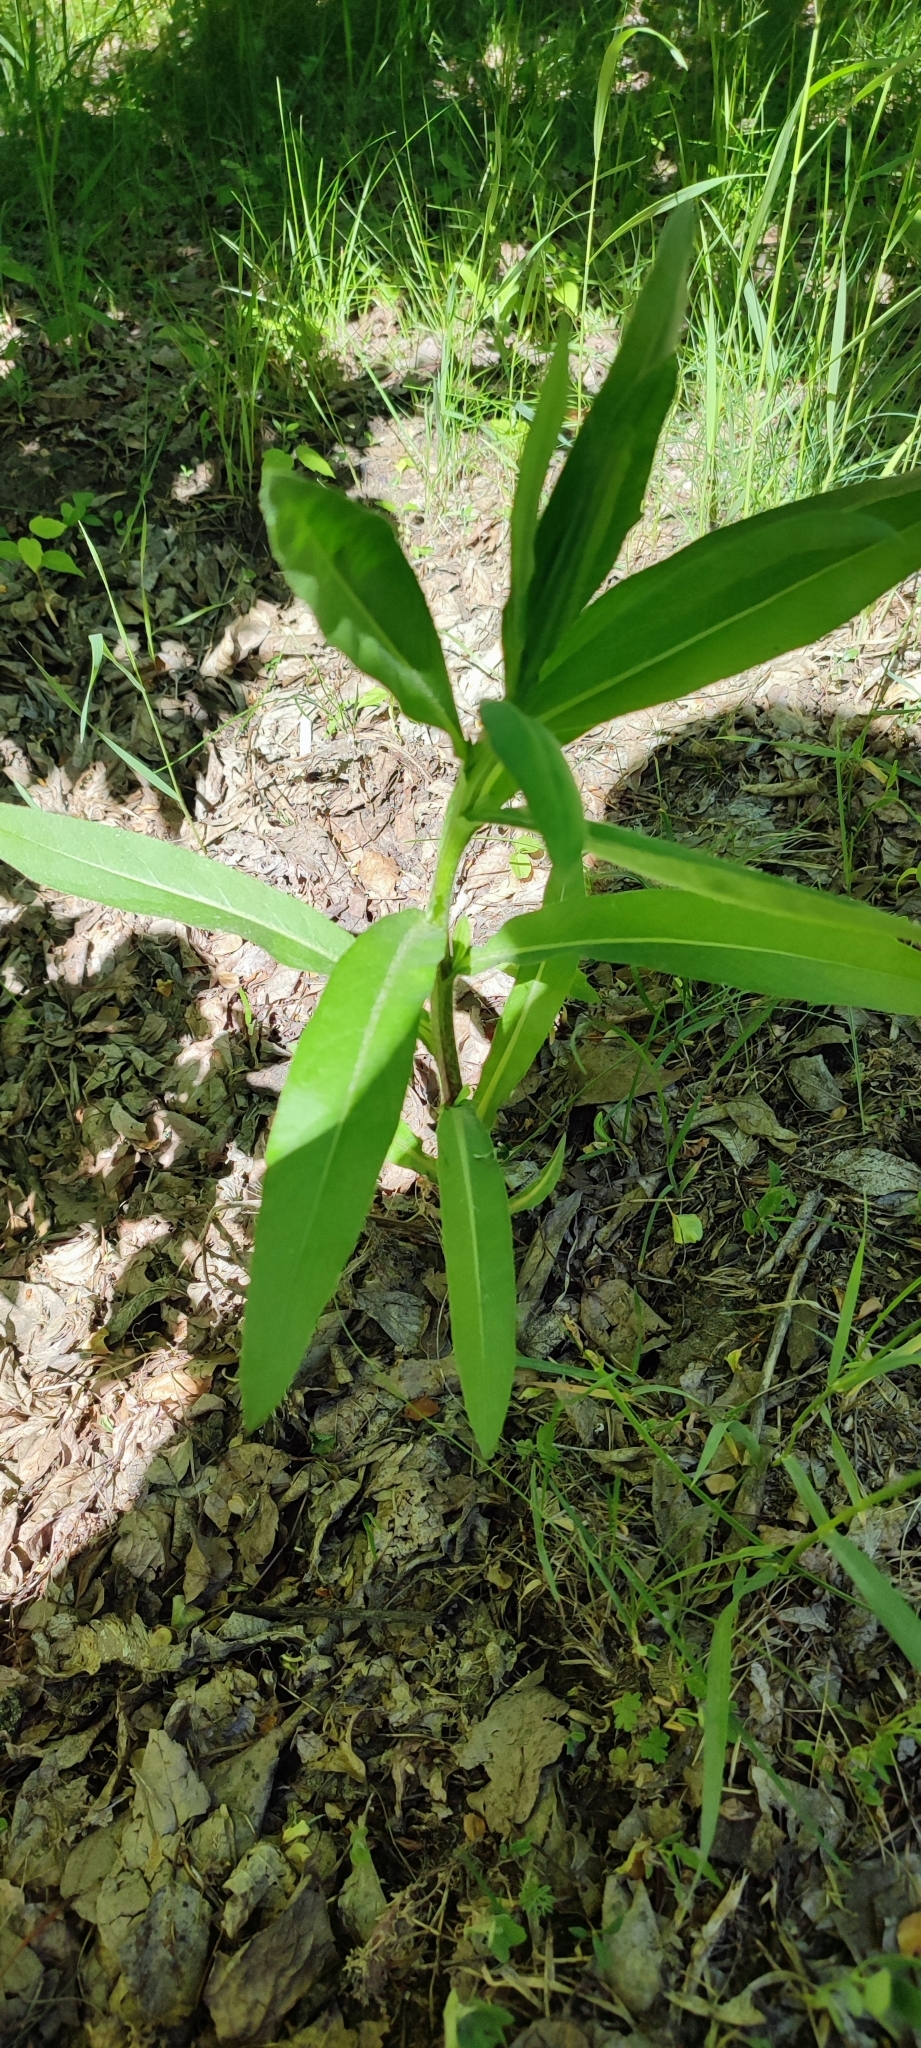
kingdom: Plantae
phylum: Tracheophyta
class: Magnoliopsida
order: Asterales
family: Asteraceae
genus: Cirsium
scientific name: Cirsium arvense
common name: Creeping thistle
